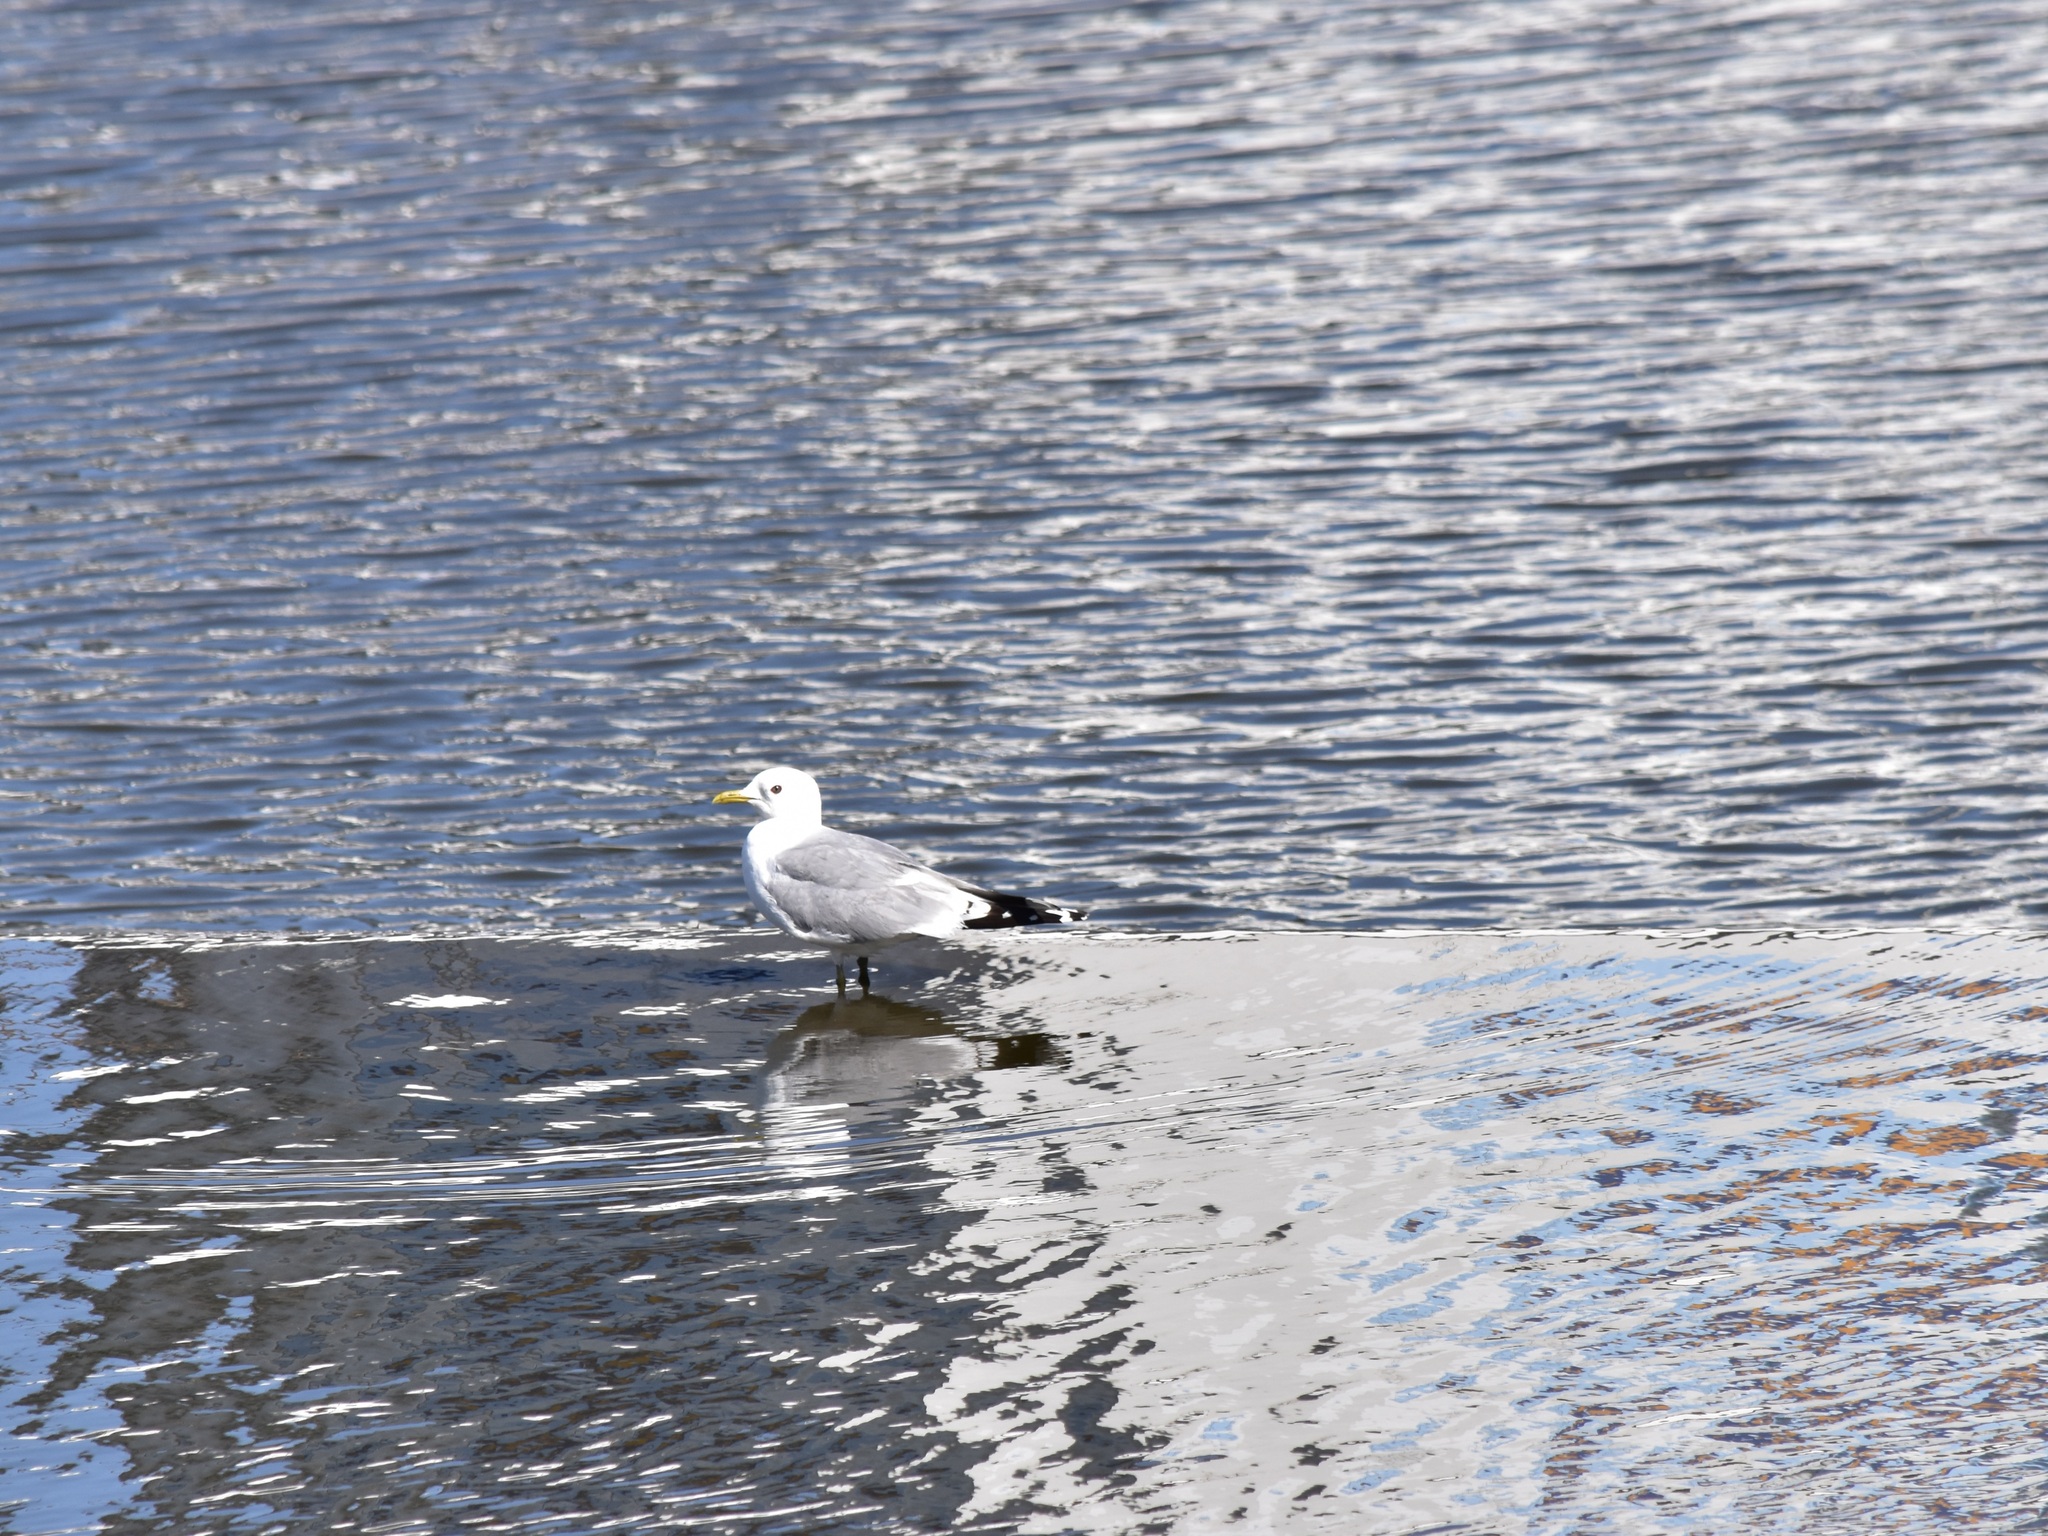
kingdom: Animalia
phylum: Chordata
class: Aves
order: Charadriiformes
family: Laridae
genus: Larus
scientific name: Larus canus
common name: Mew gull
